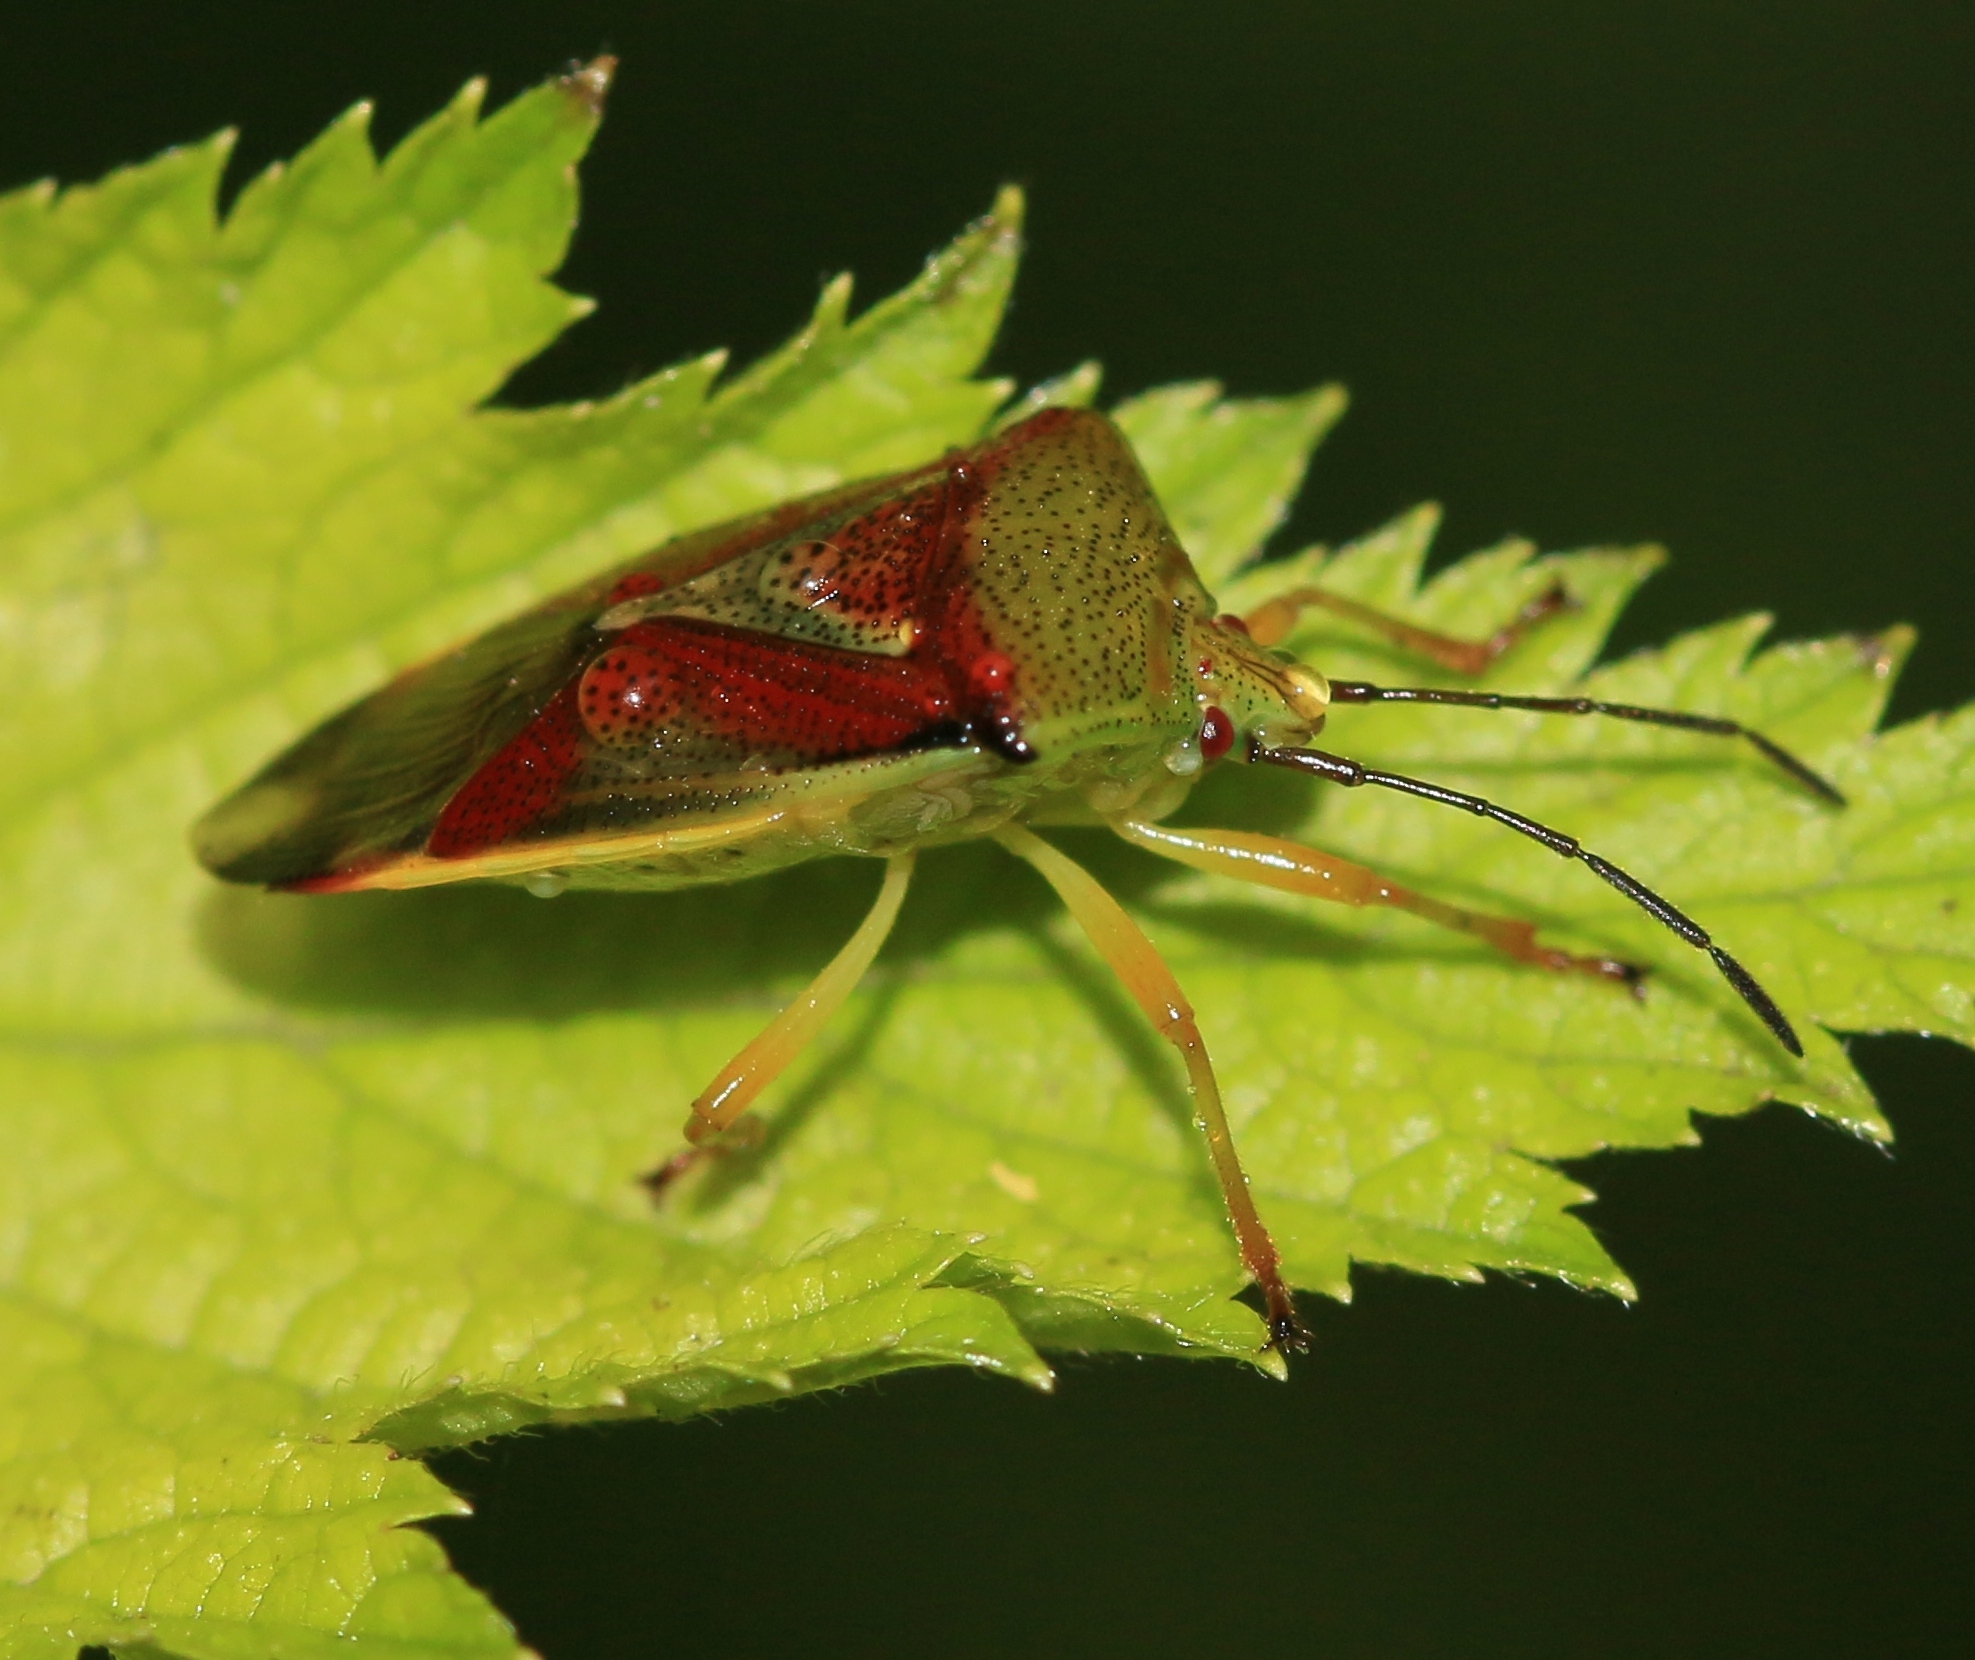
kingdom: Animalia
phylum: Arthropoda
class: Insecta
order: Hemiptera
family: Acanthosomatidae
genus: Elasmostethus
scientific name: Elasmostethus interstinctus
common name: Birch shieldbug
